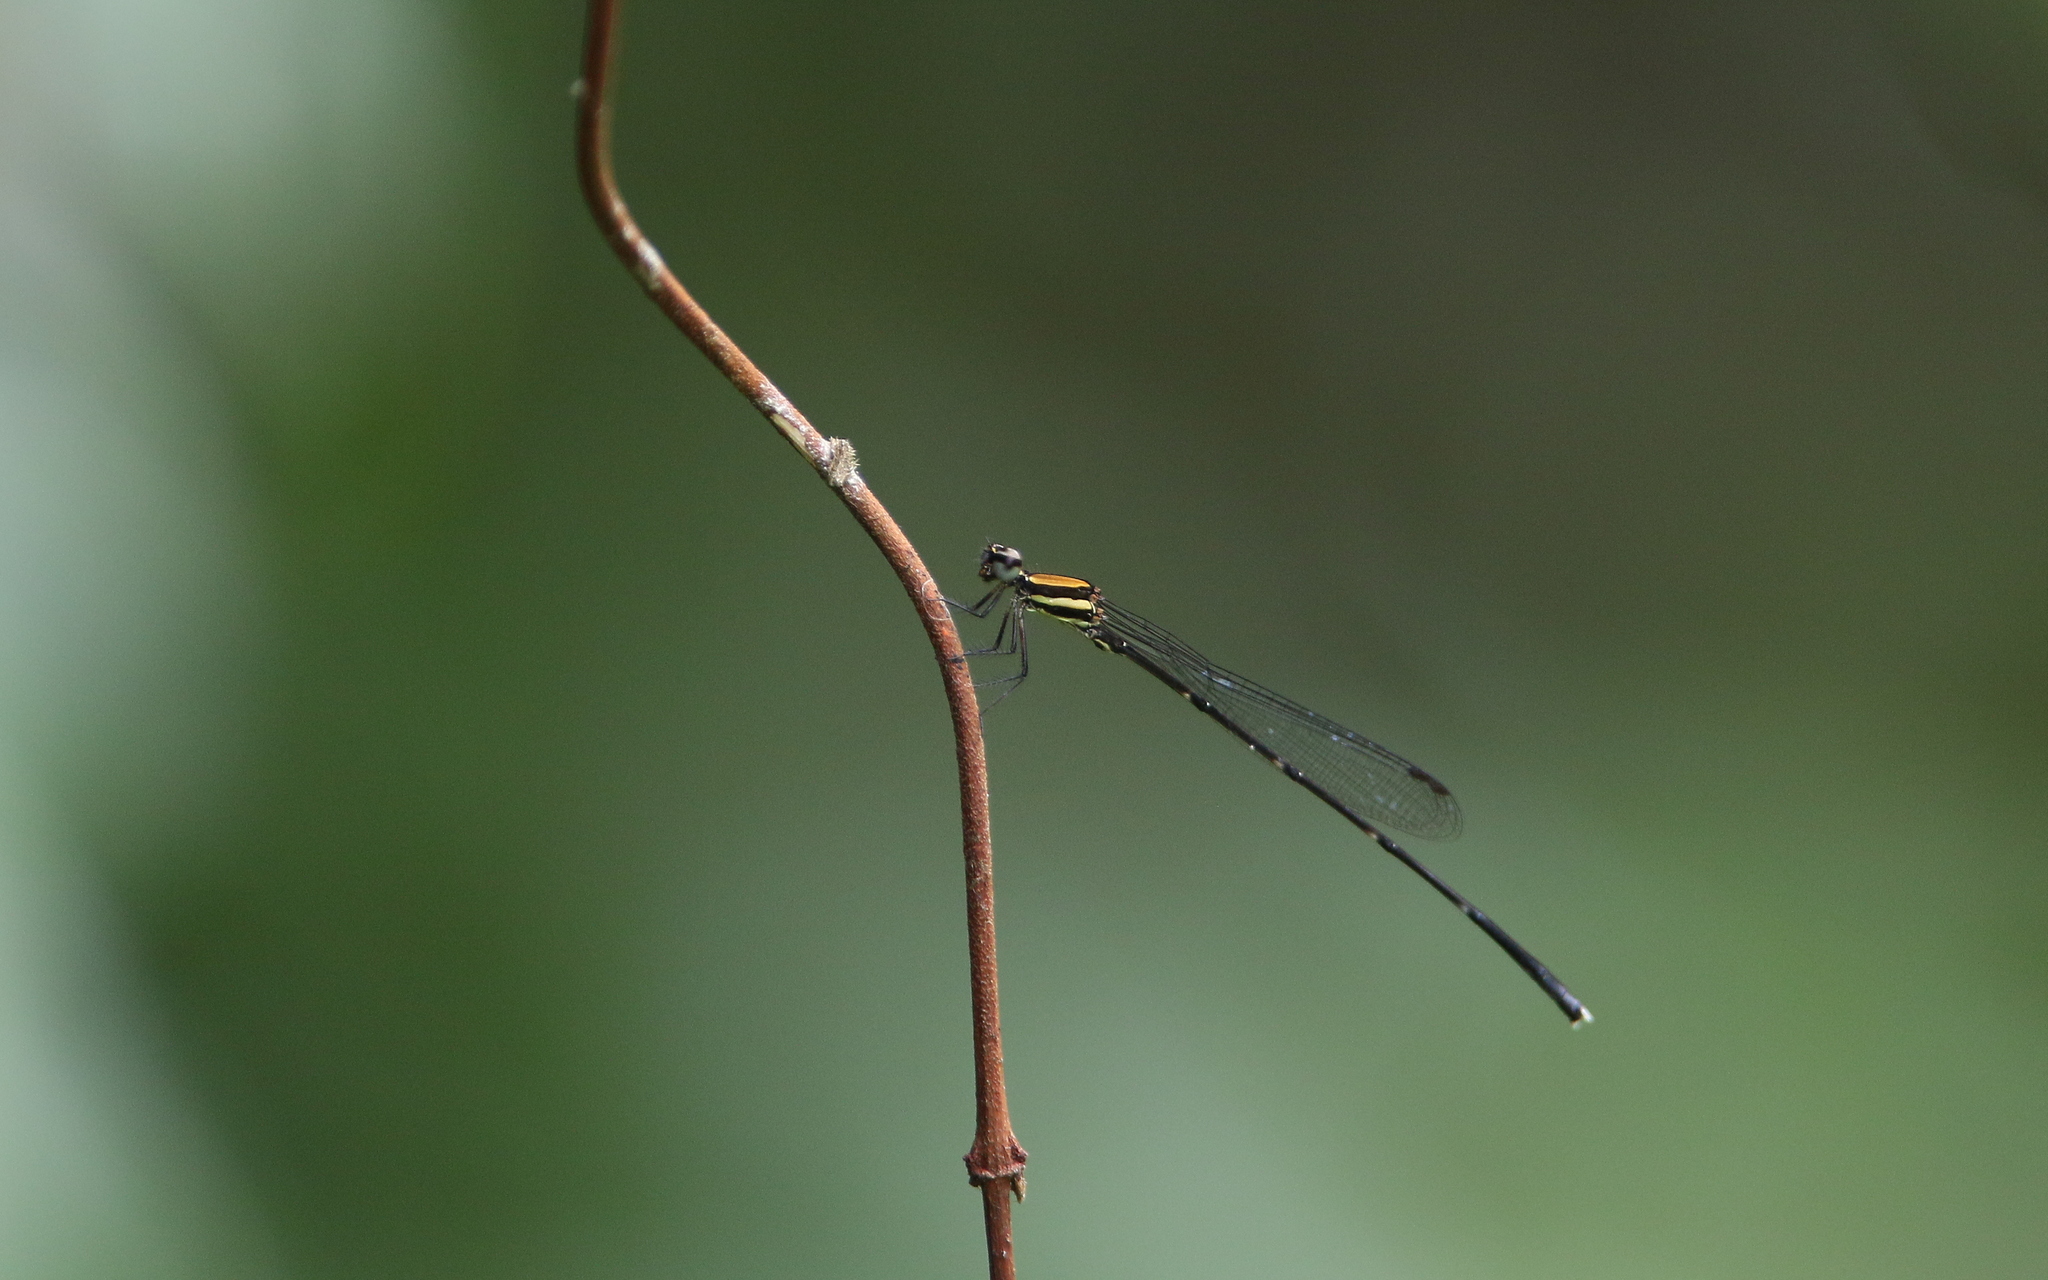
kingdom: Animalia
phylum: Arthropoda
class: Insecta
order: Odonata
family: Platycnemididae
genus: Prodasineura
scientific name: Prodasineura croconota
